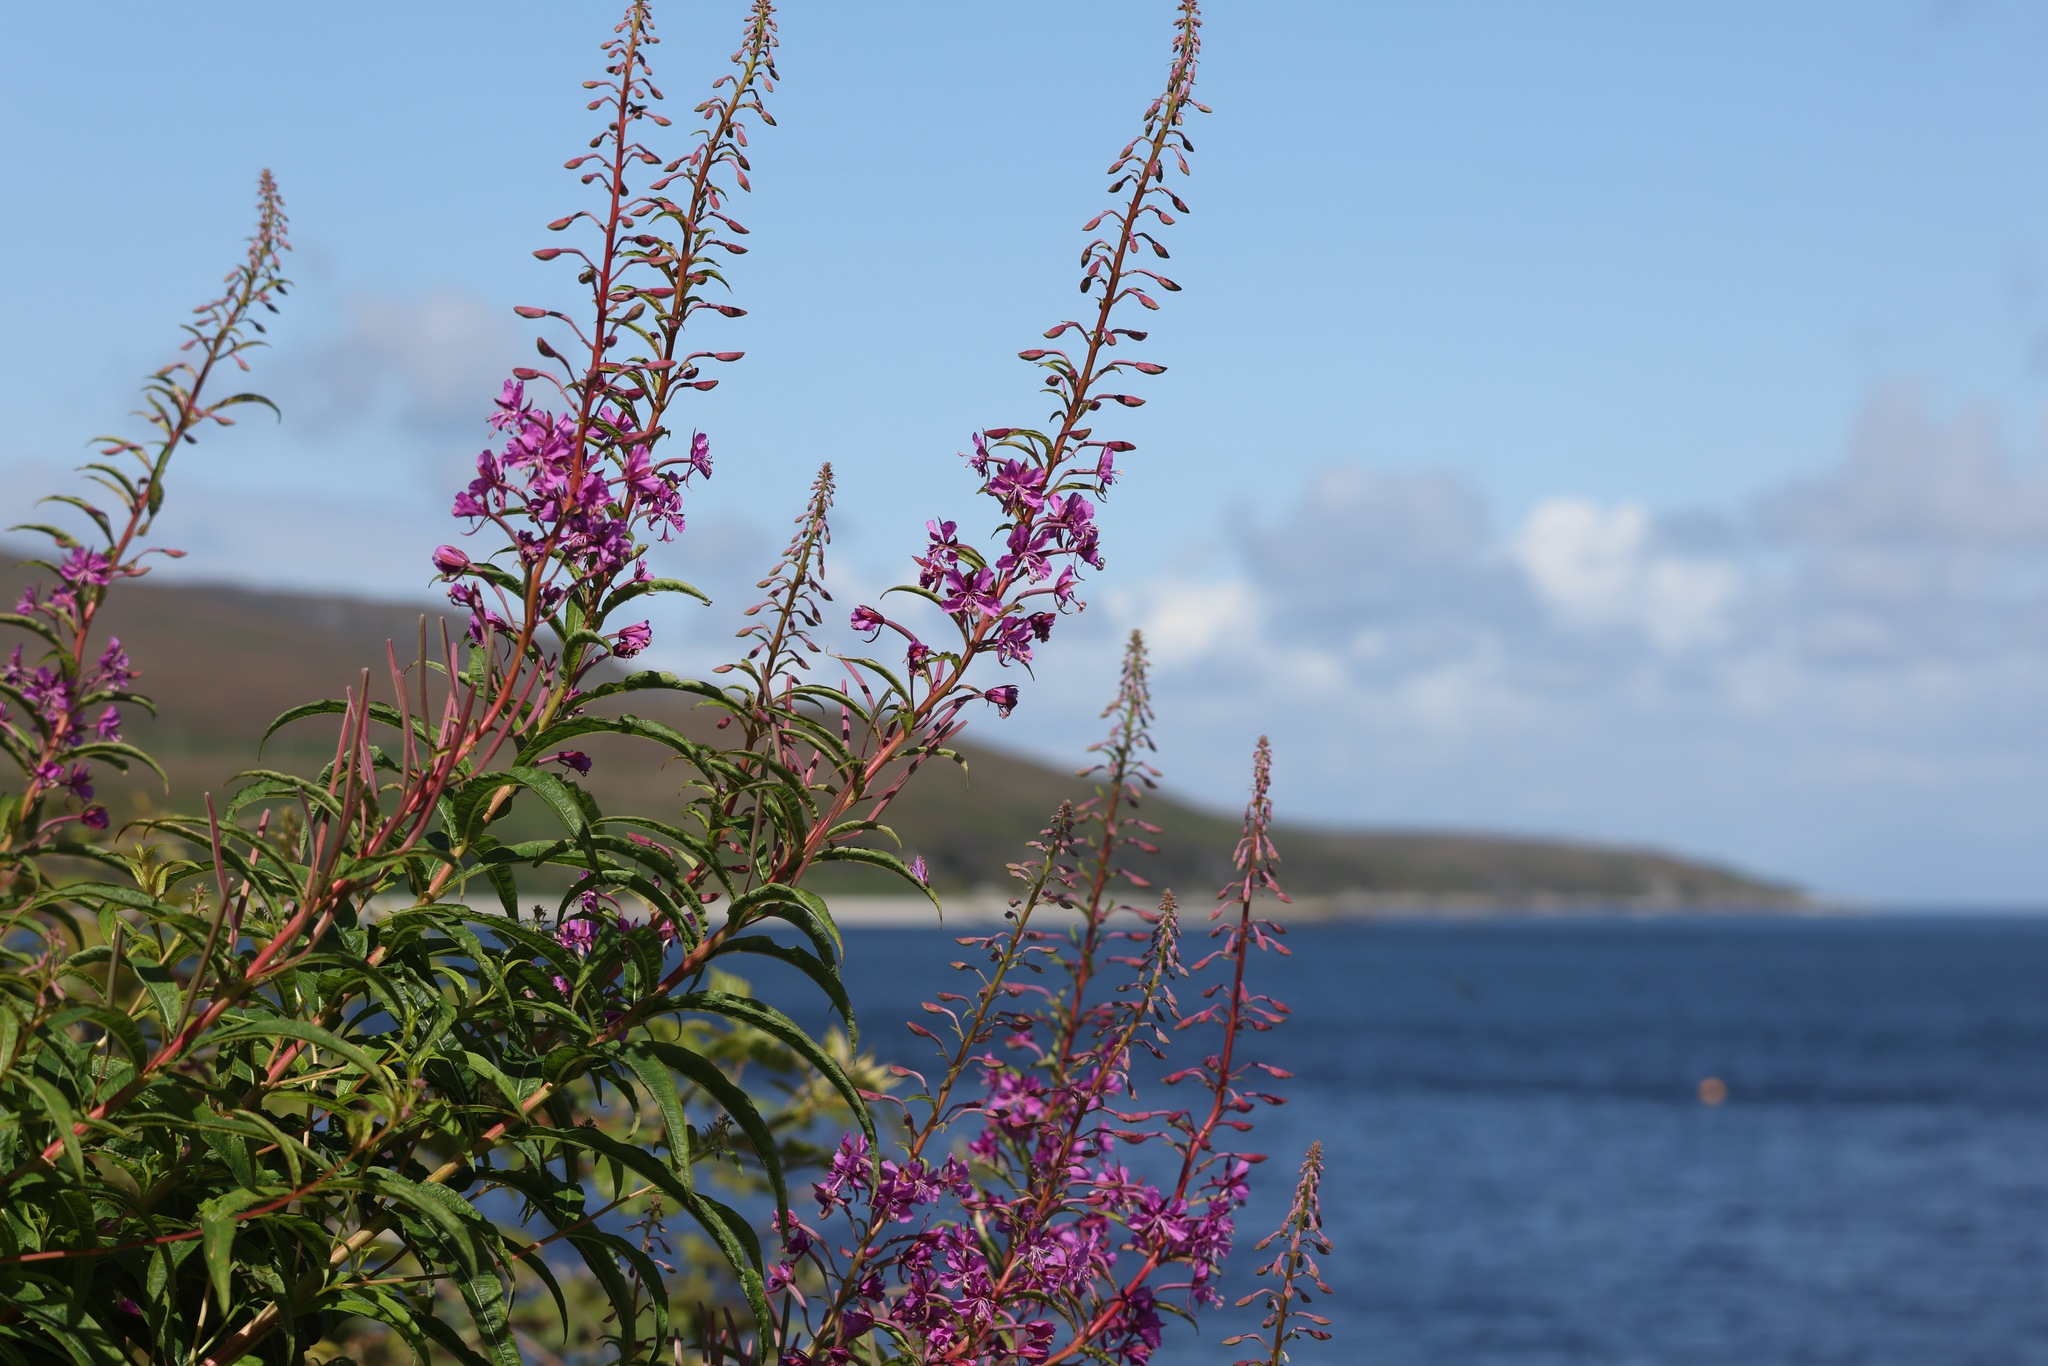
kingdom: Plantae
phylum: Tracheophyta
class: Magnoliopsida
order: Myrtales
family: Onagraceae
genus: Chamaenerion
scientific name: Chamaenerion angustifolium
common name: Fireweed
